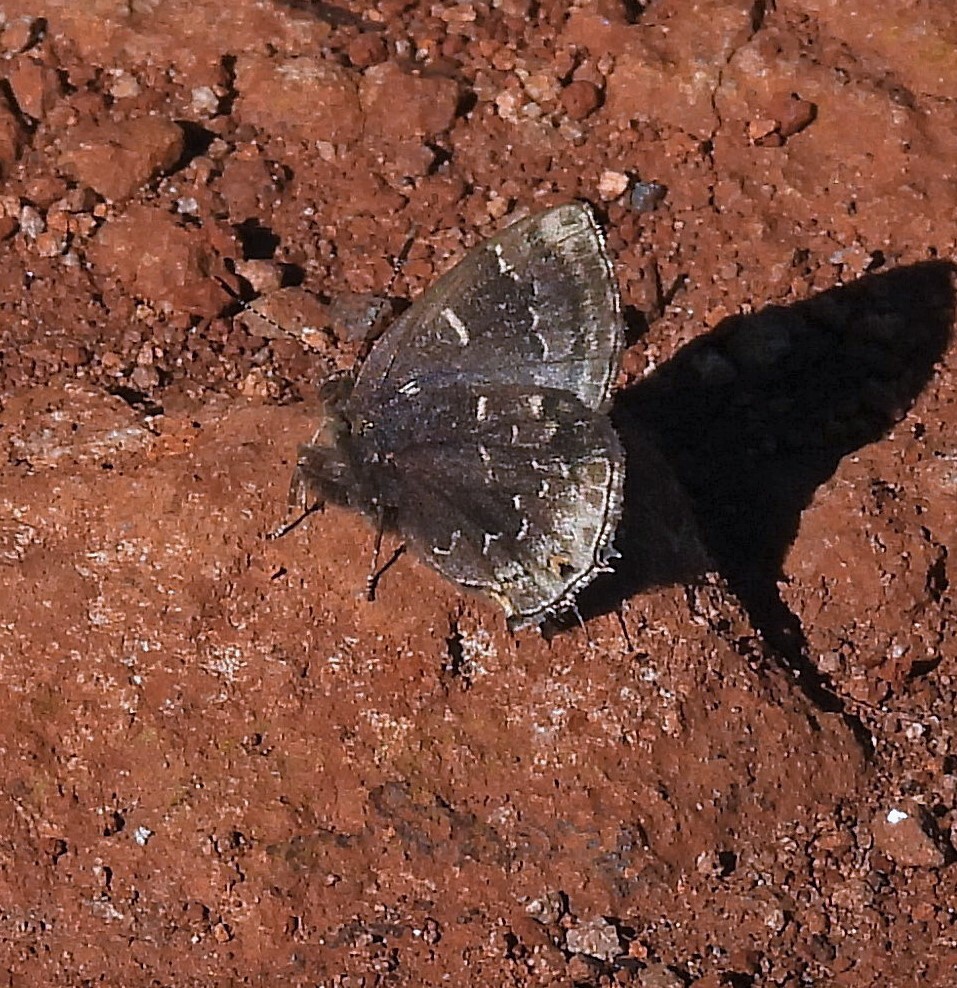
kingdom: Animalia
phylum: Arthropoda
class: Insecta
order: Lepidoptera
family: Lycaenidae
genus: Ocaria
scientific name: Ocaria ocrisia
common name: Black hairstreak
